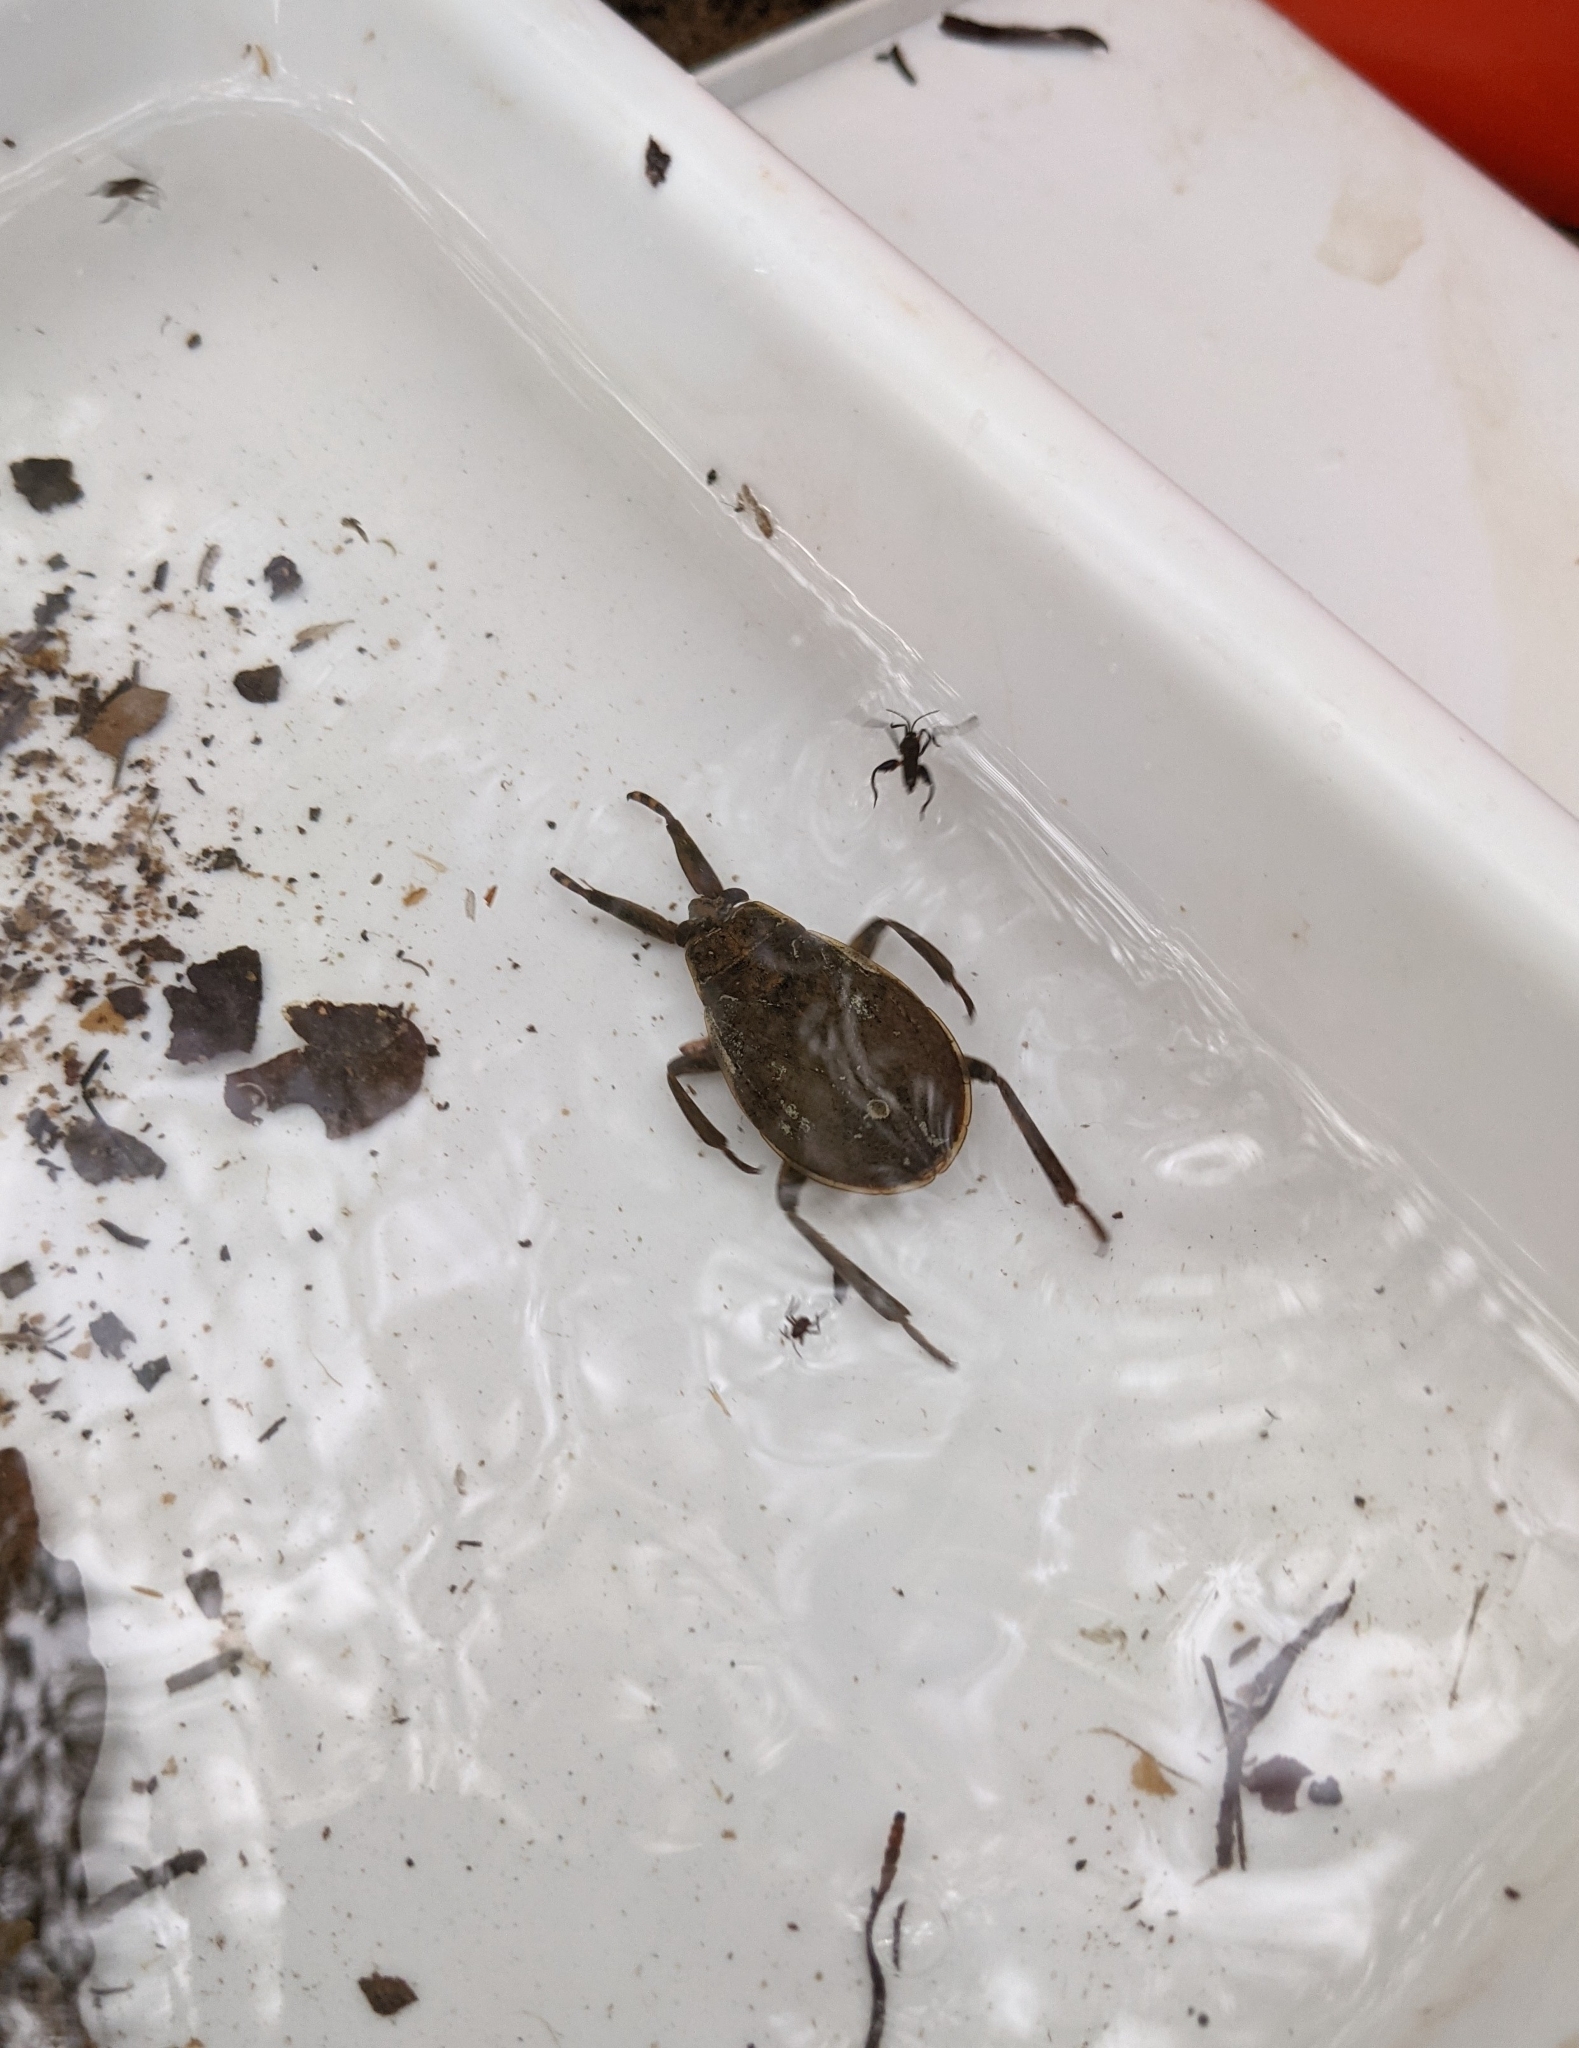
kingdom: Animalia
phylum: Arthropoda
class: Insecta
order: Hemiptera
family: Belostomatidae
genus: Abedus
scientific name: Abedus
